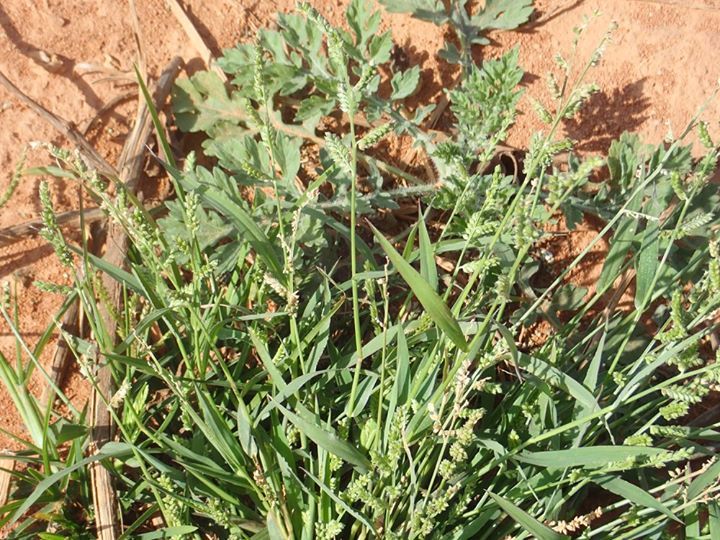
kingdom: Plantae
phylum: Tracheophyta
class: Liliopsida
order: Poales
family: Poaceae
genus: Echinochloa
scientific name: Echinochloa colonum
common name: Jungle rice
